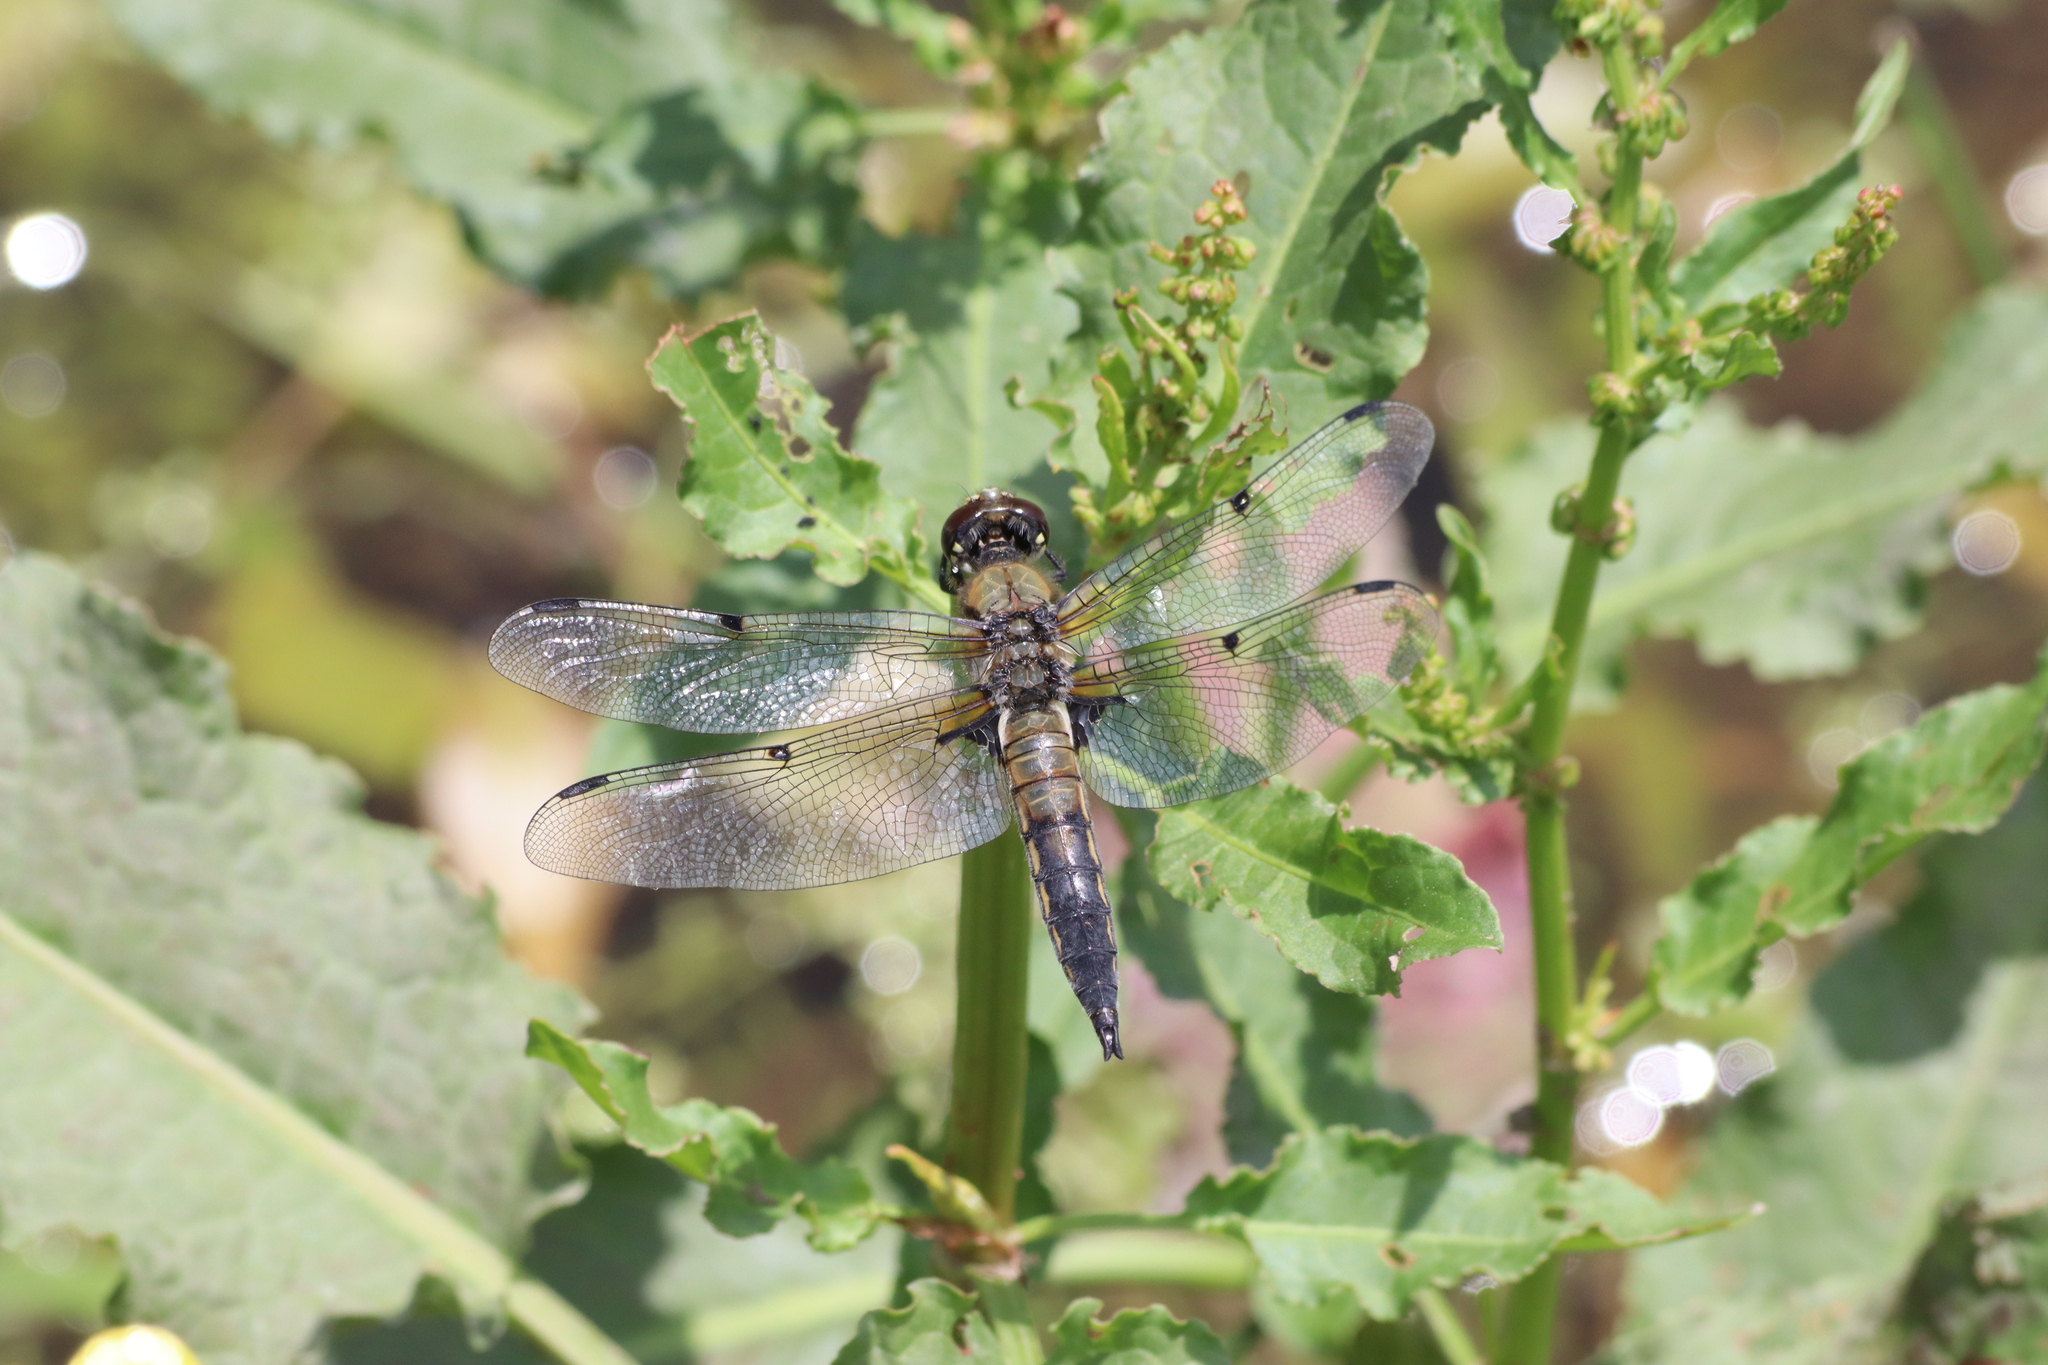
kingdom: Animalia
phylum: Arthropoda
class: Insecta
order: Odonata
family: Libellulidae
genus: Libellula
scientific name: Libellula quadrimaculata
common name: Four-spotted chaser
